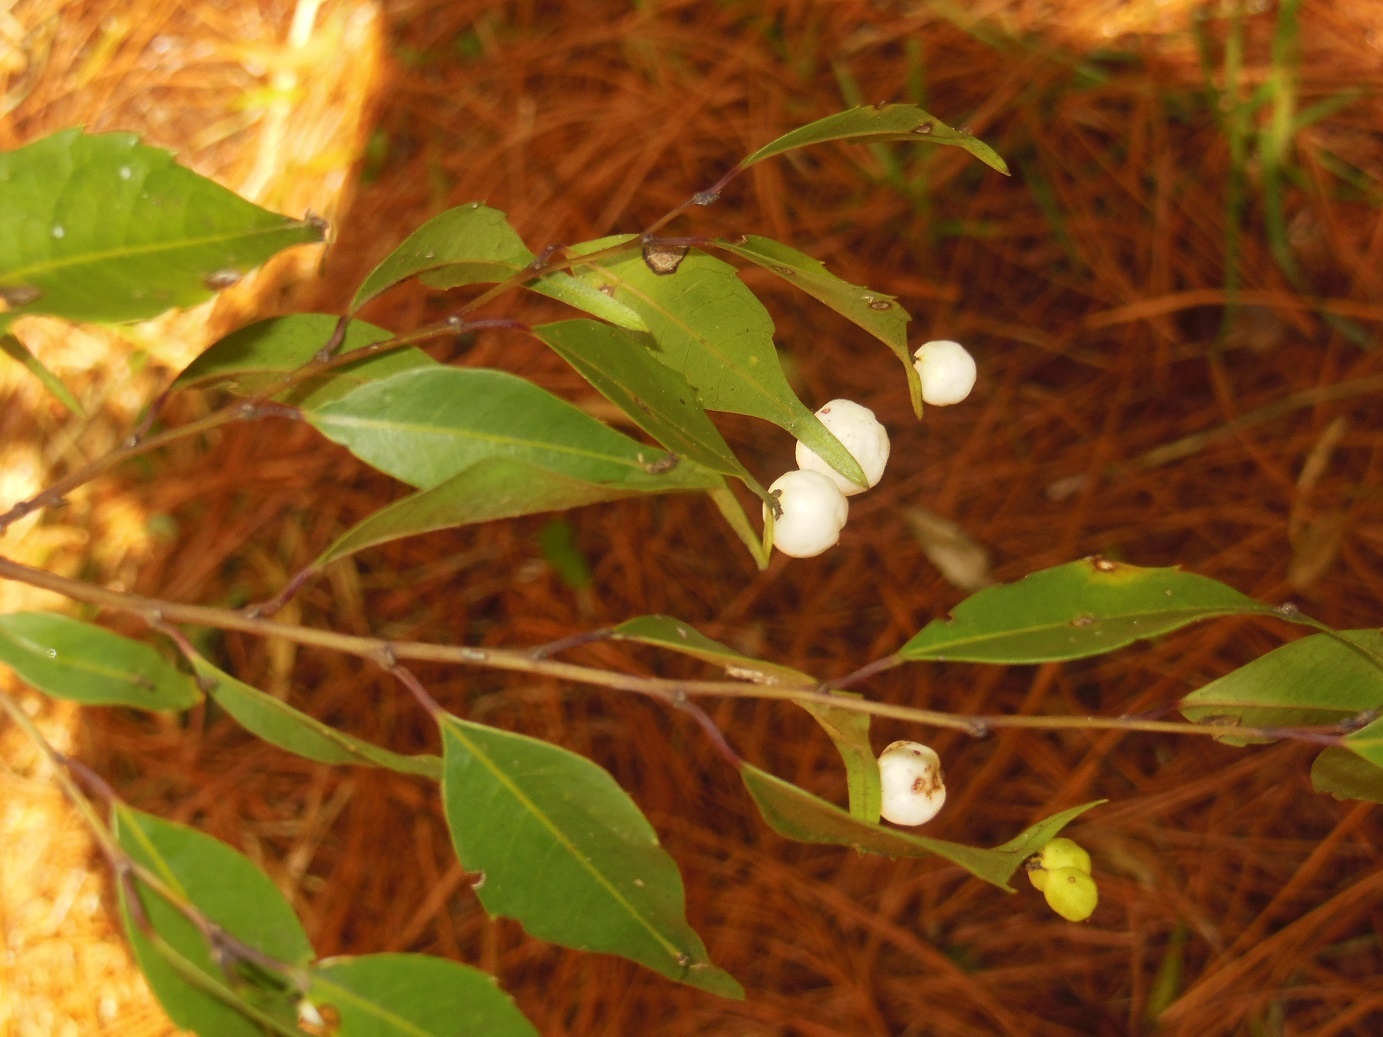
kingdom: Plantae
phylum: Tracheophyta
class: Magnoliopsida
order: Aquifoliales
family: Phyllonomaceae
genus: Phyllonoma
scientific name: Phyllonoma laticuspis
